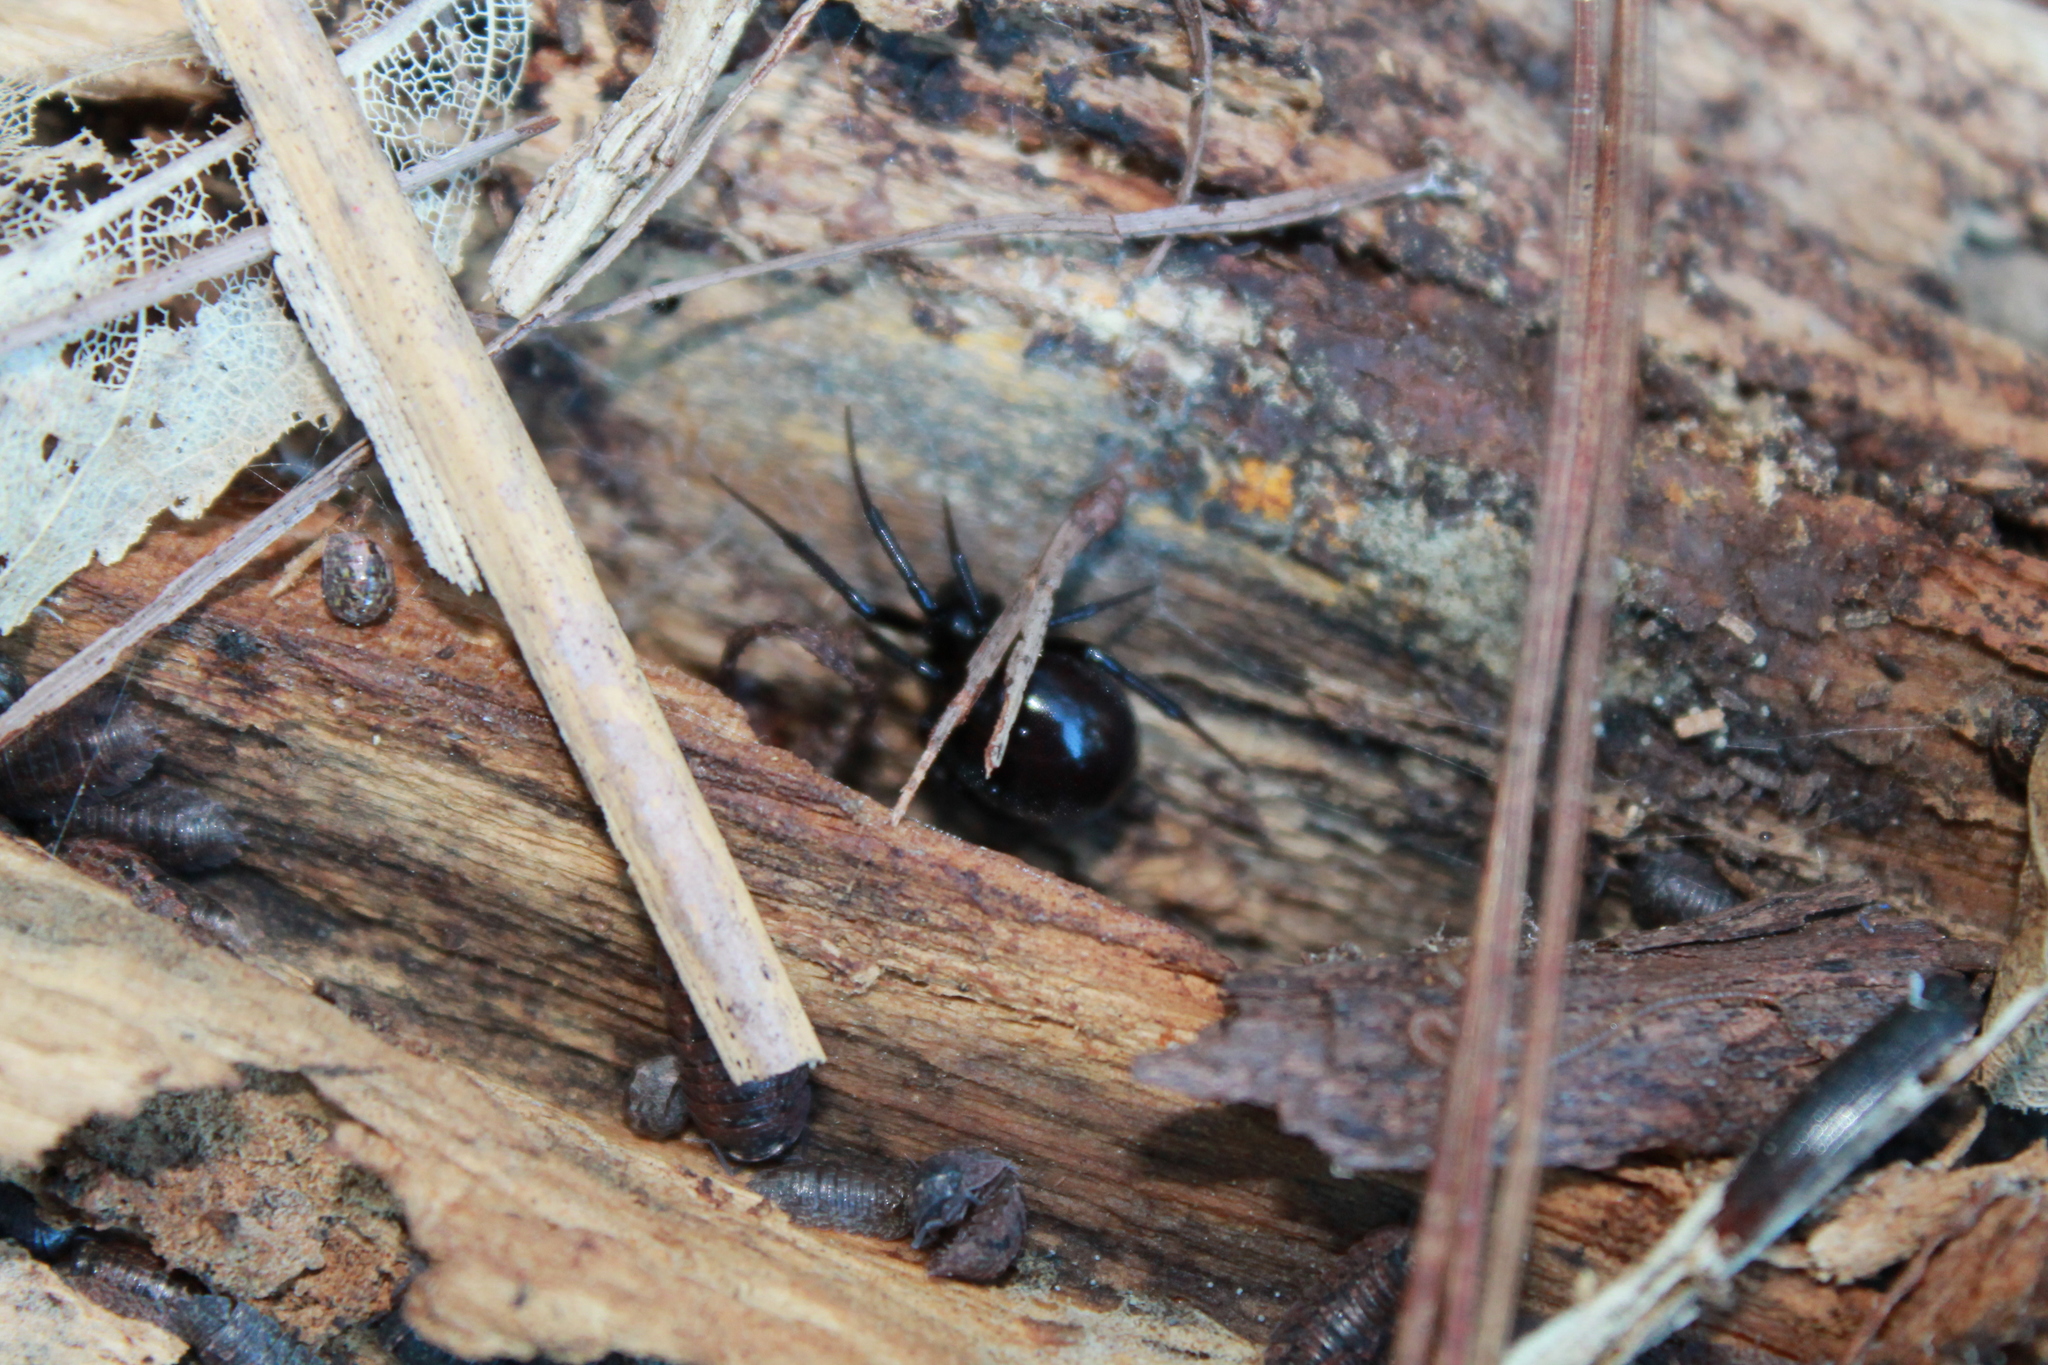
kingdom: Animalia
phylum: Arthropoda
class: Arachnida
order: Araneae
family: Theridiidae
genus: Steatoda
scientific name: Steatoda capensis
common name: Cobweb weaver
